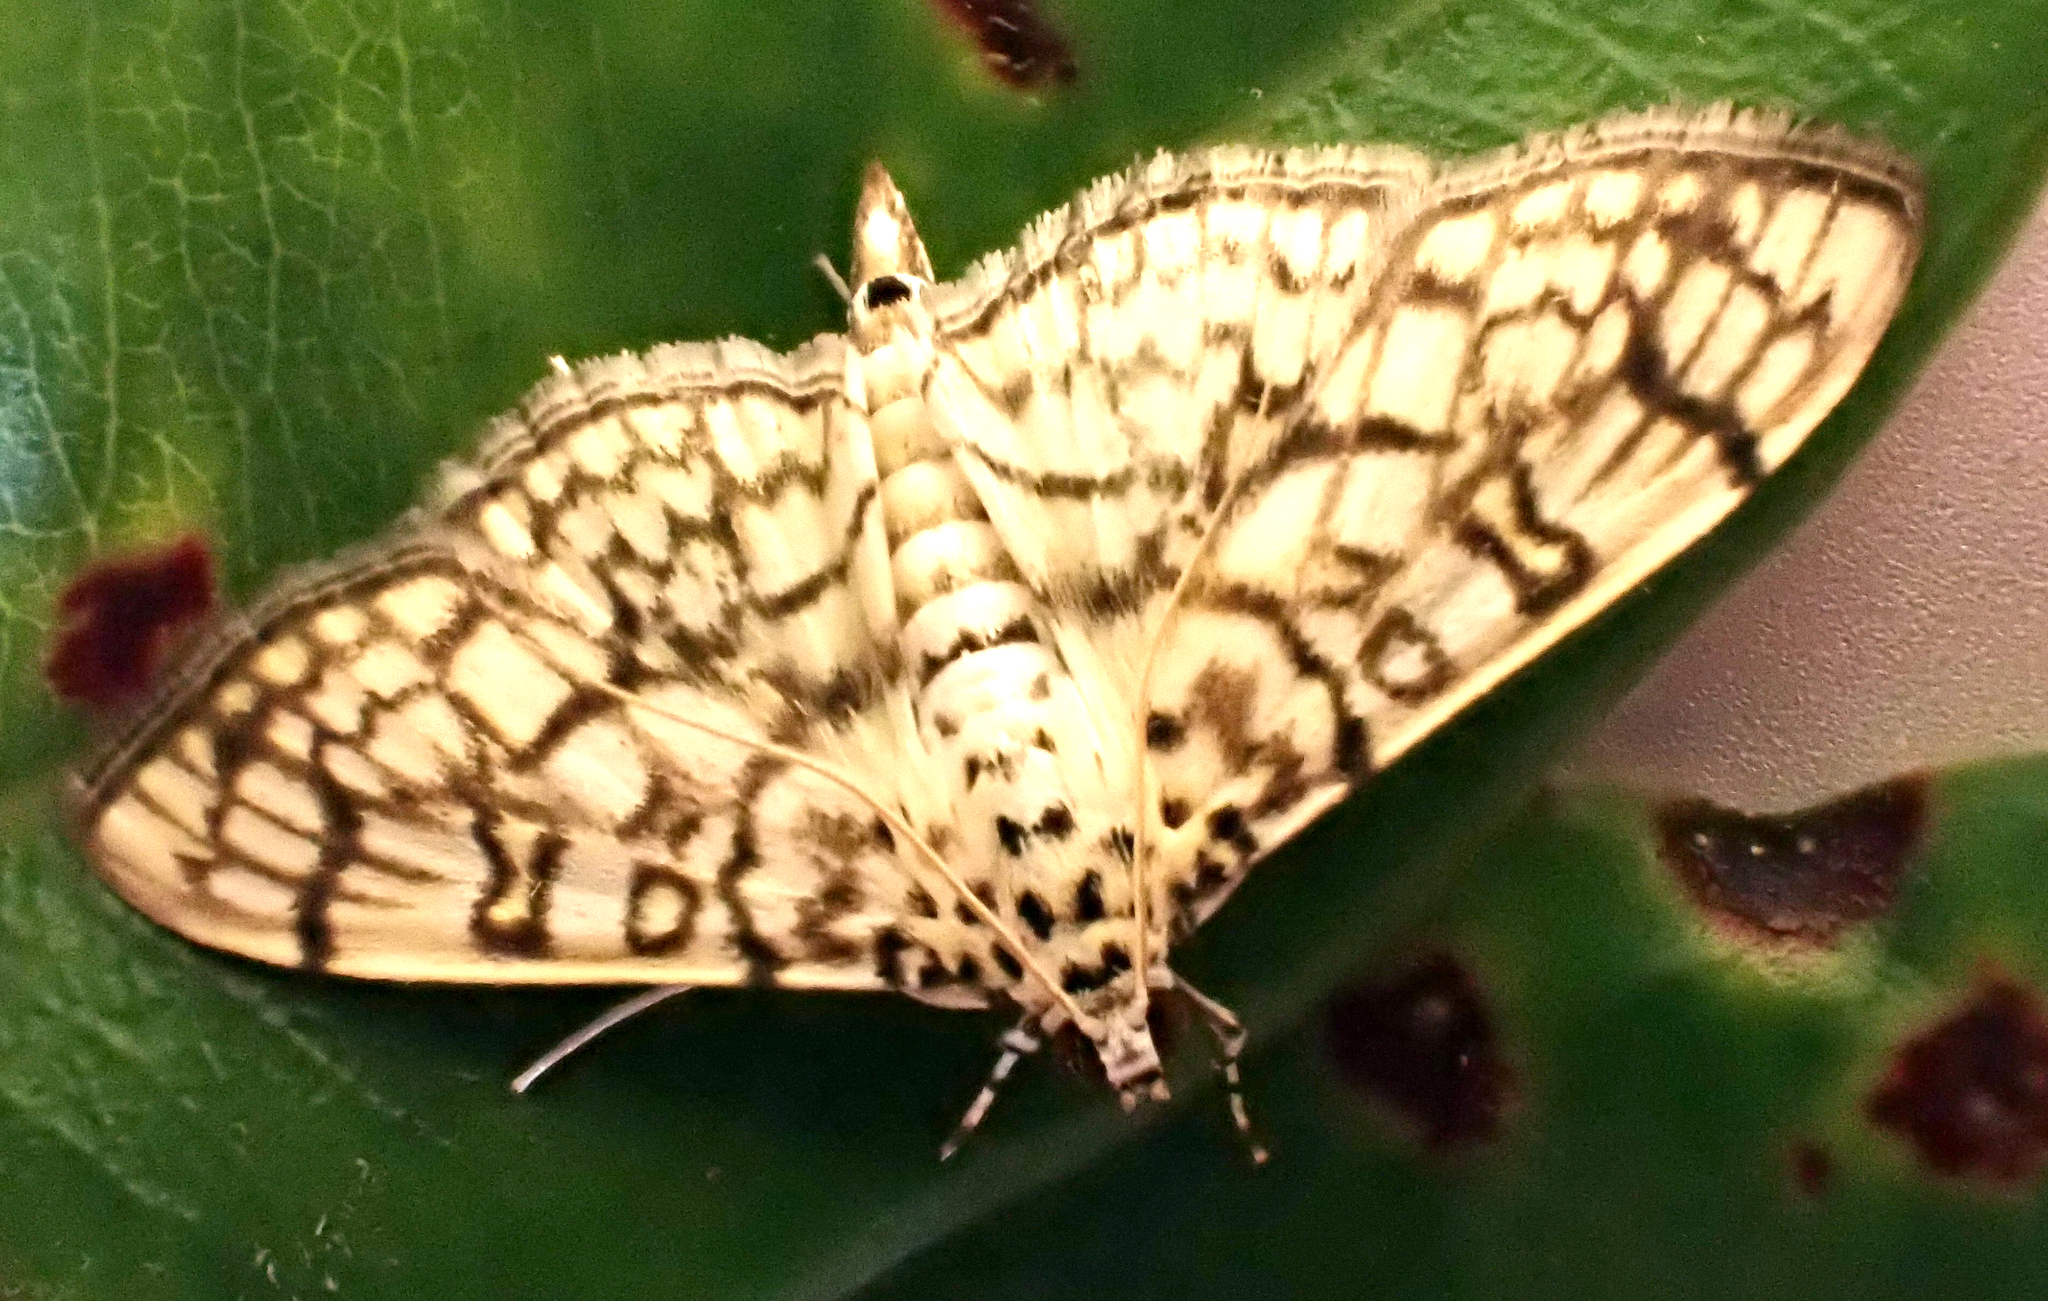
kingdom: Animalia
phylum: Arthropoda
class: Insecta
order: Lepidoptera
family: Crambidae
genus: Haritalodes
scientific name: Haritalodes derogata
